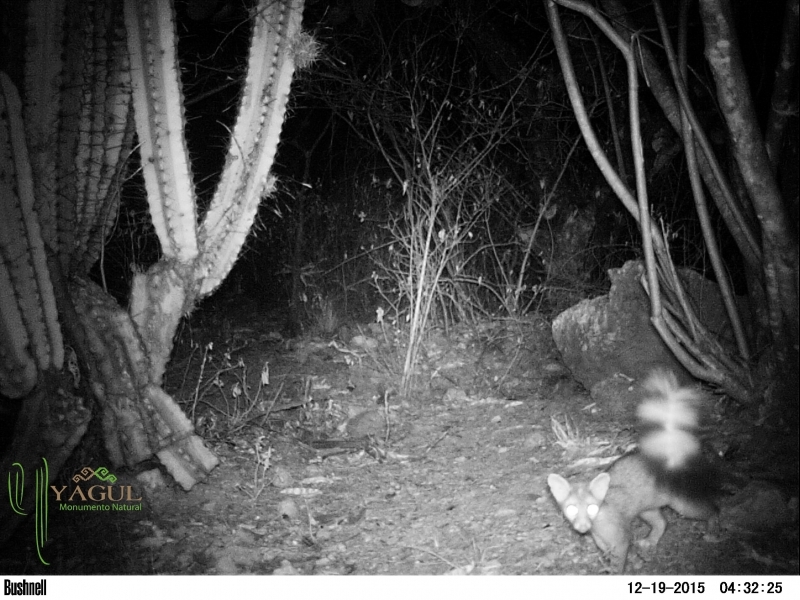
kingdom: Animalia
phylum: Chordata
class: Mammalia
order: Carnivora
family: Procyonidae
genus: Bassariscus
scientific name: Bassariscus astutus
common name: Ringtail
